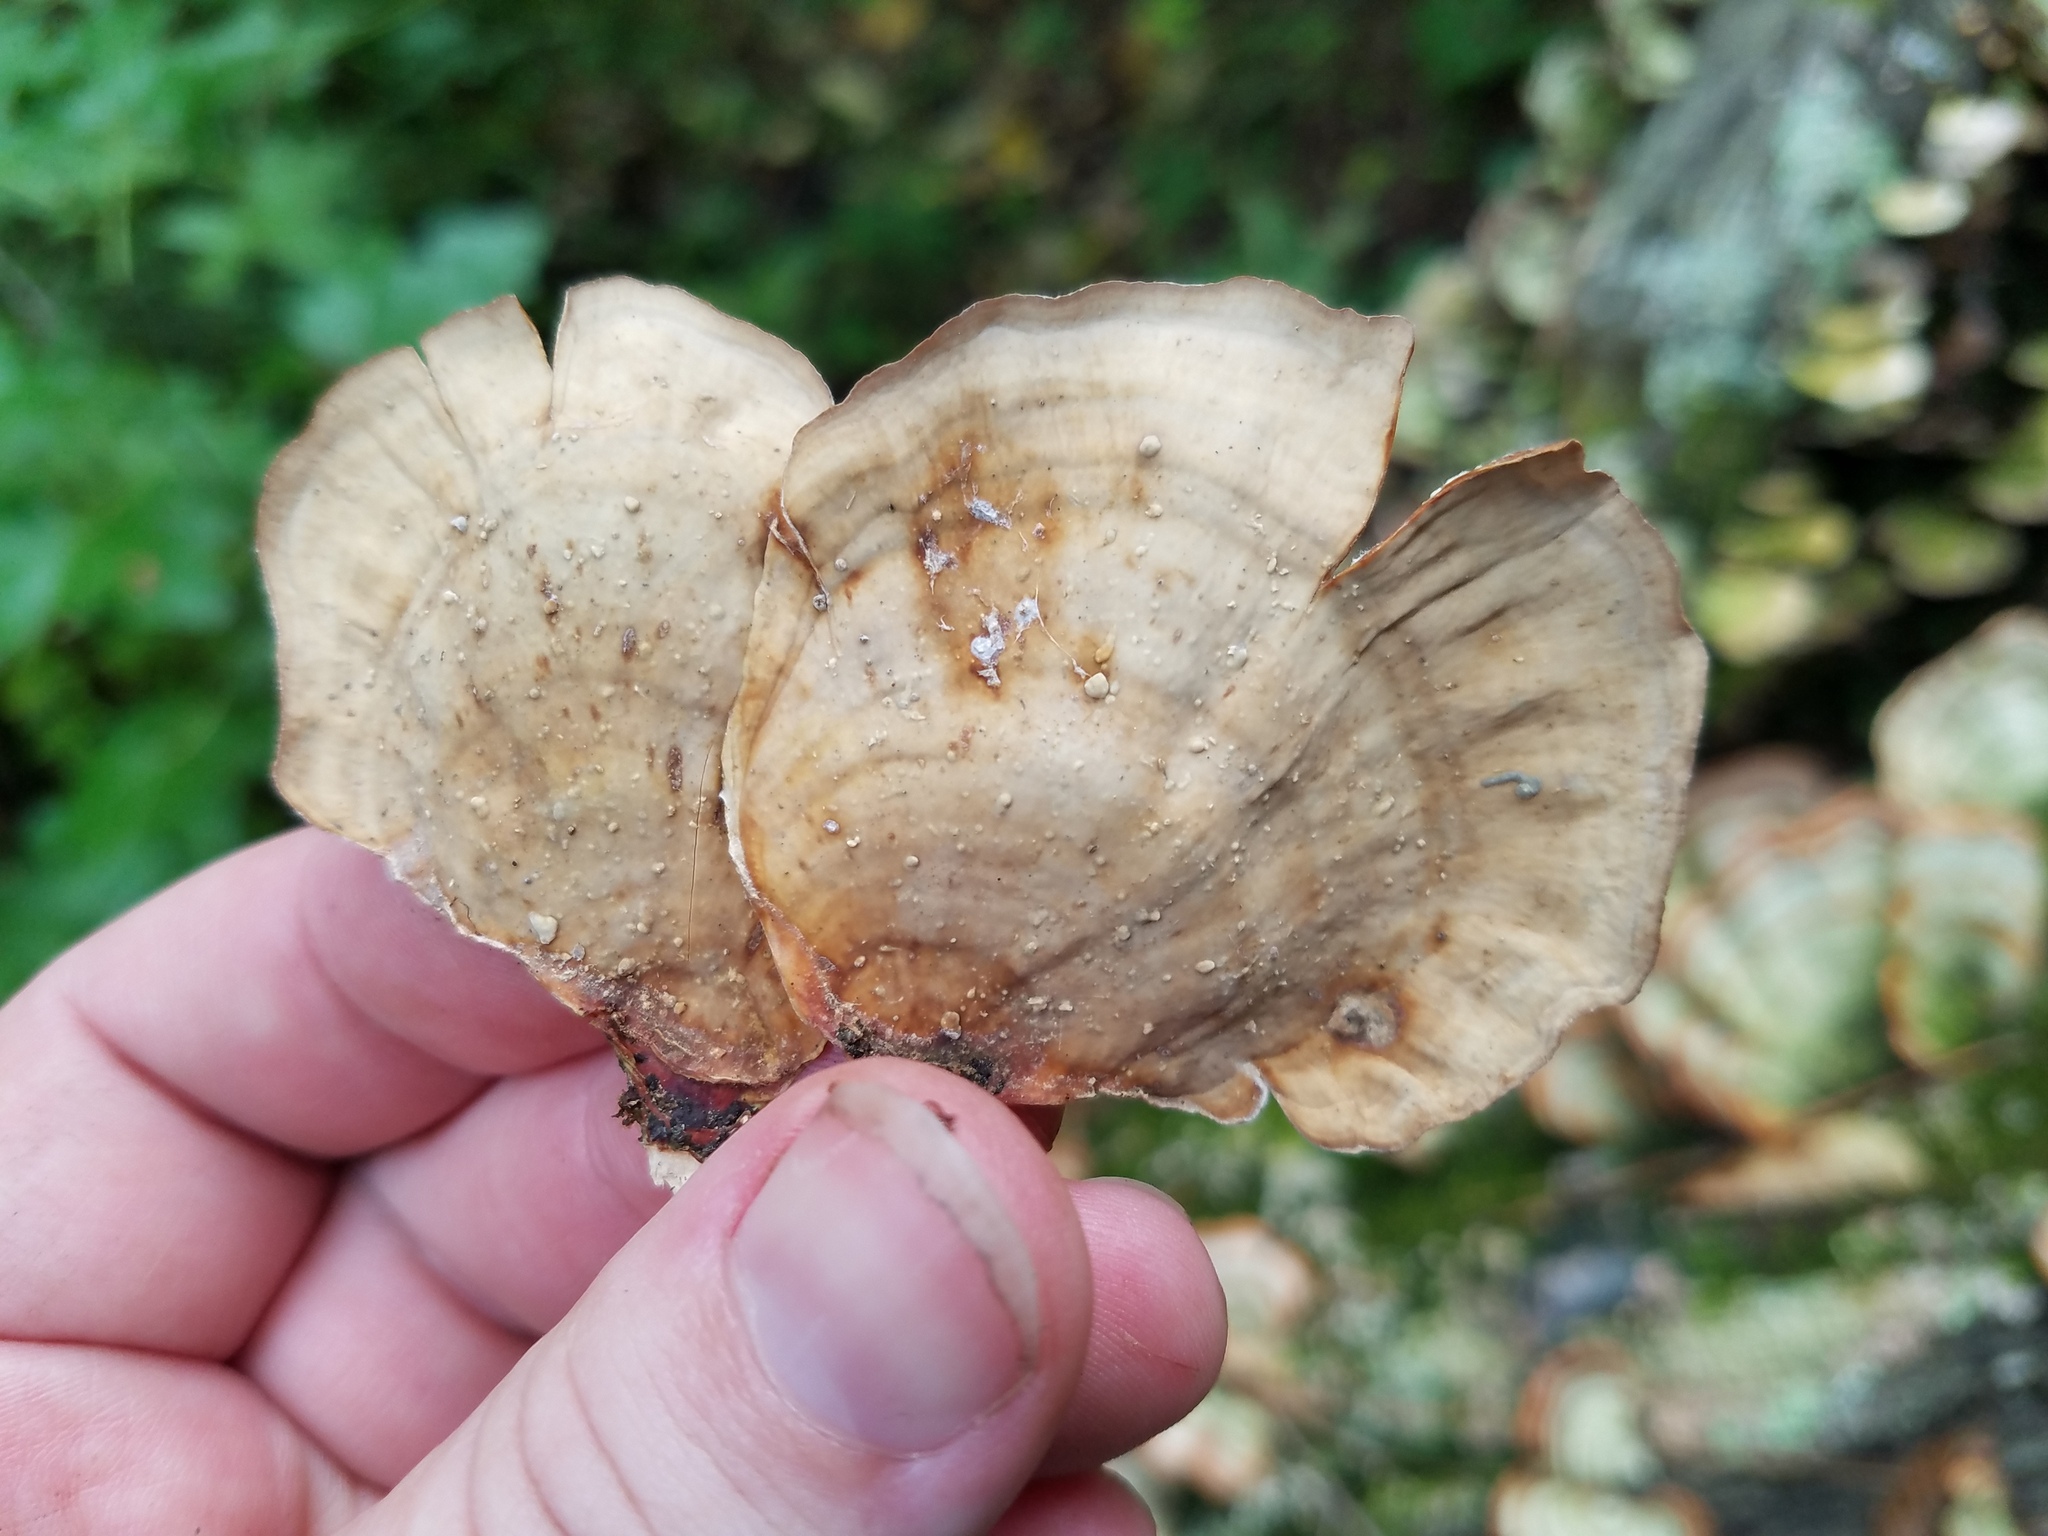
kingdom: Fungi
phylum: Basidiomycota
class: Agaricomycetes
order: Russulales
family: Stereaceae
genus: Stereum
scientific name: Stereum lobatum
